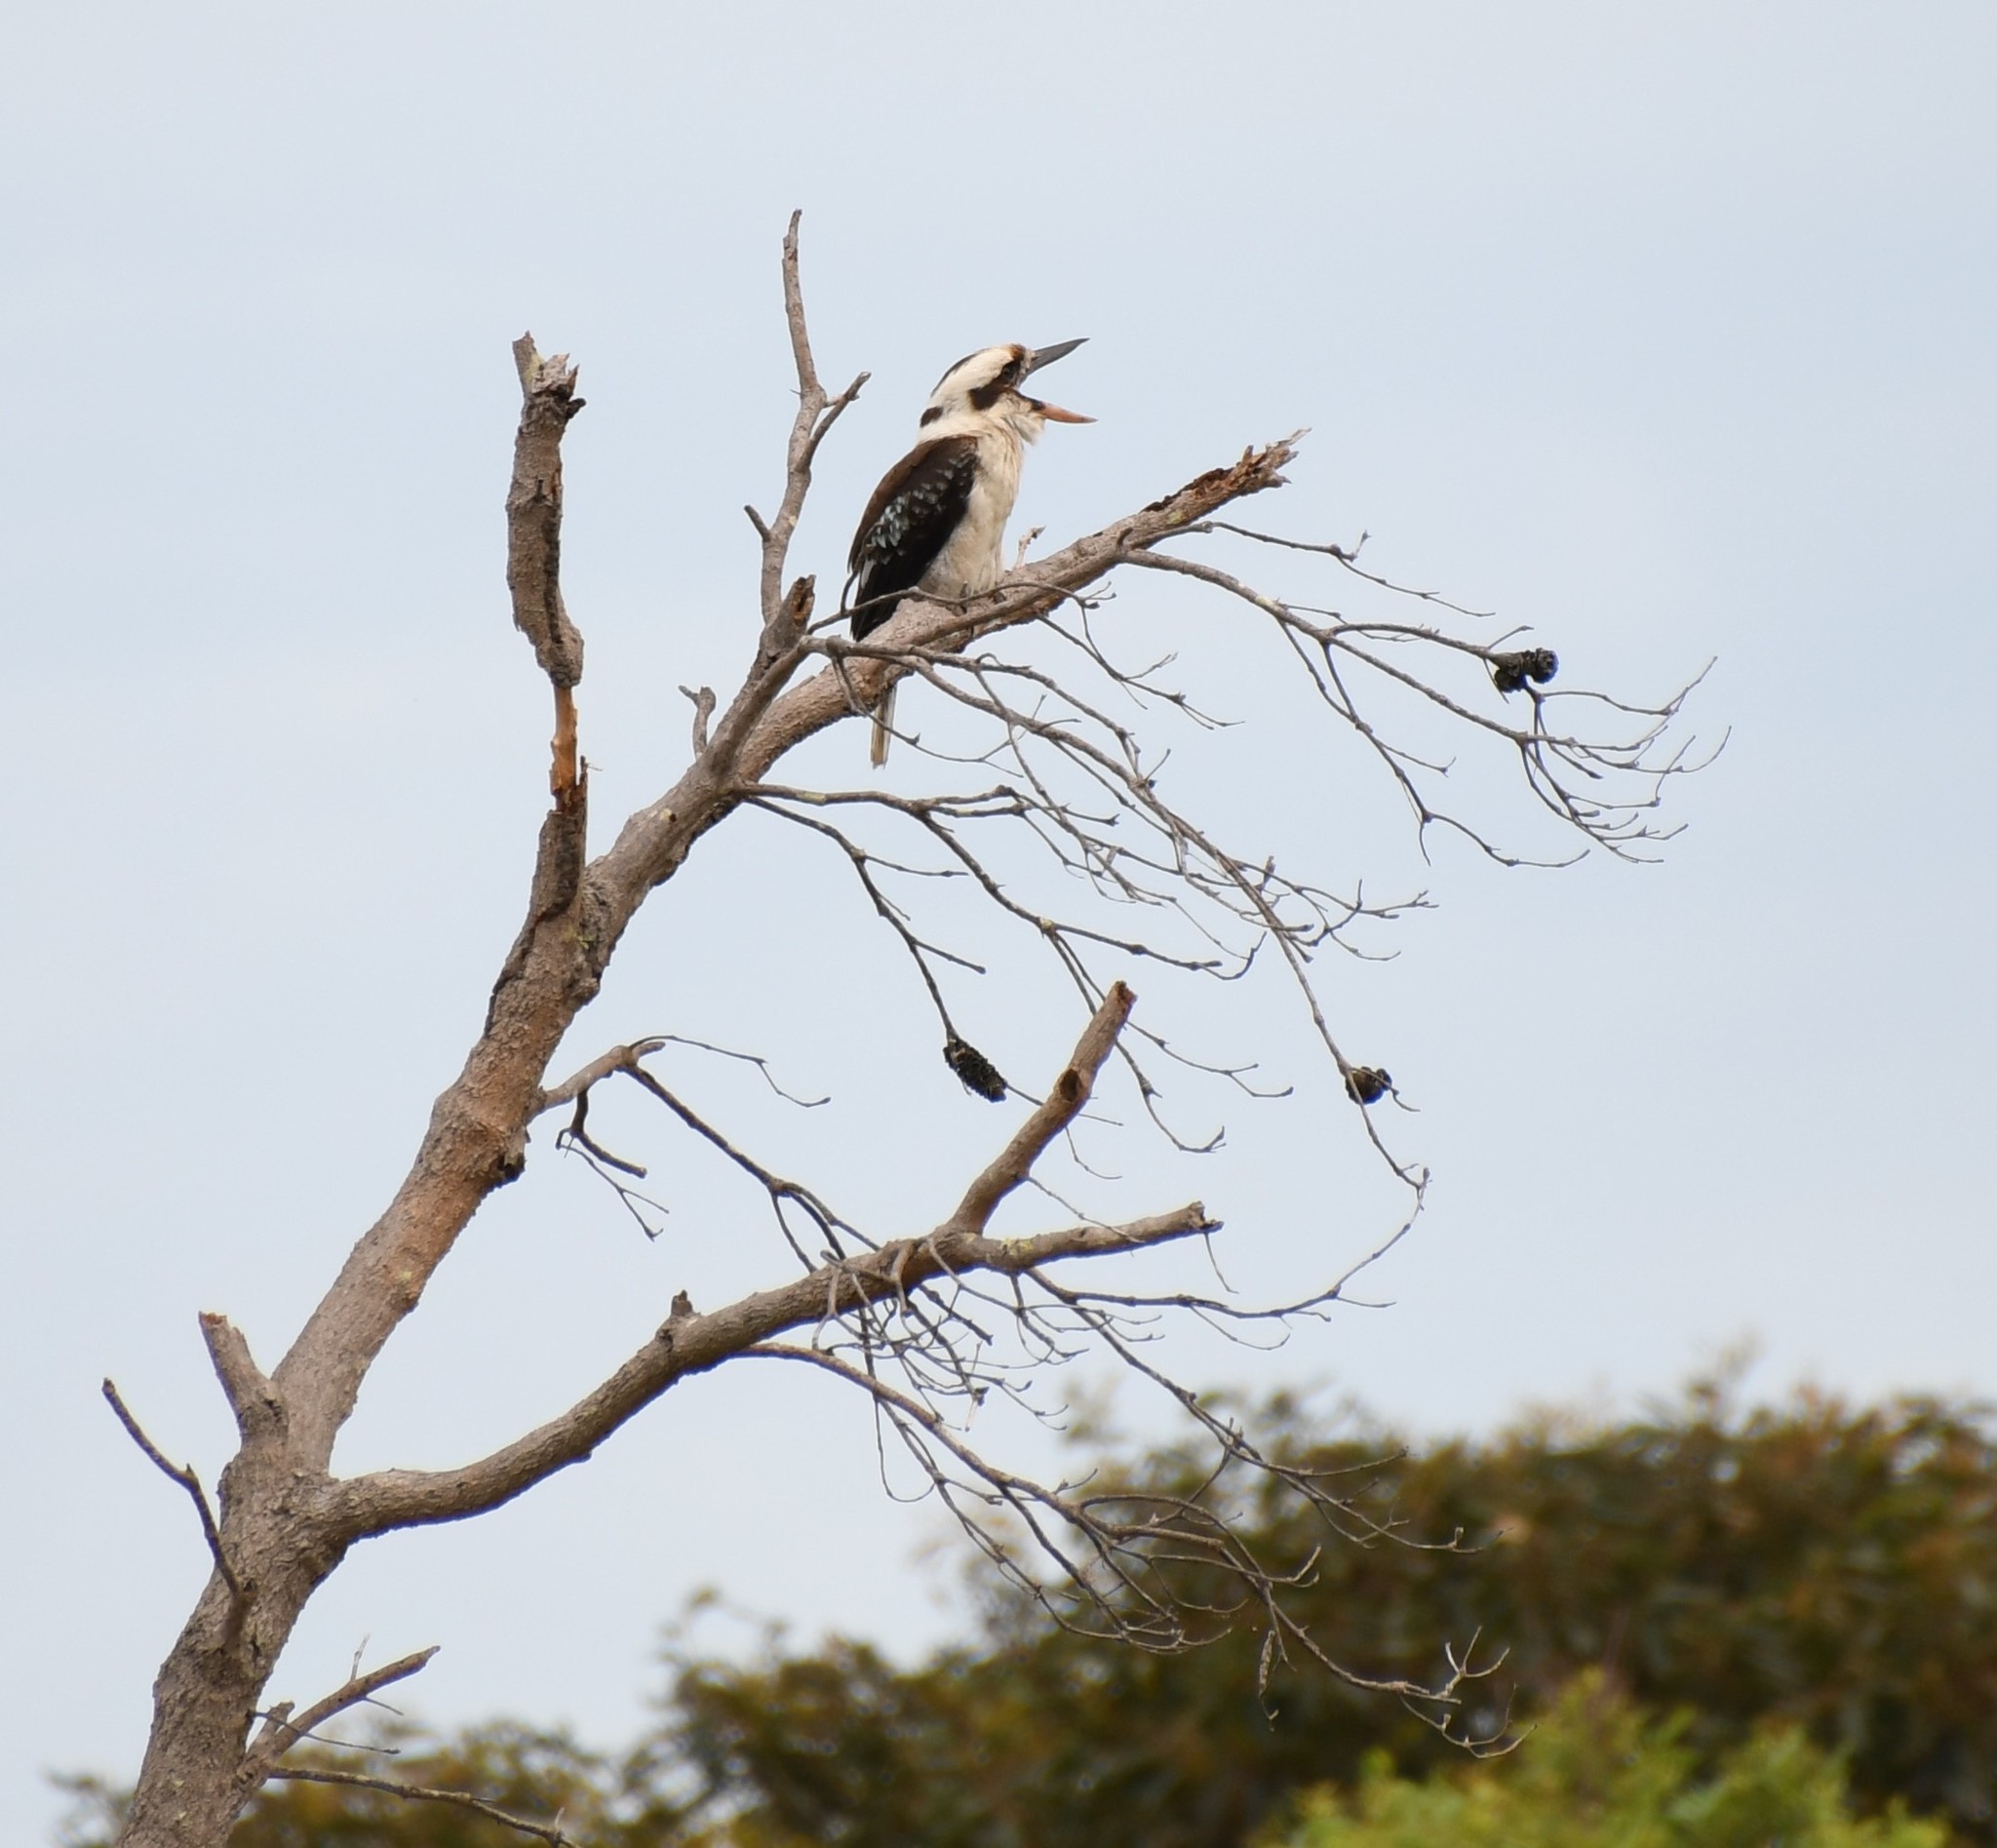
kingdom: Animalia
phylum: Chordata
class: Aves
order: Coraciiformes
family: Alcedinidae
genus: Dacelo
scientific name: Dacelo novaeguineae
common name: Laughing kookaburra
